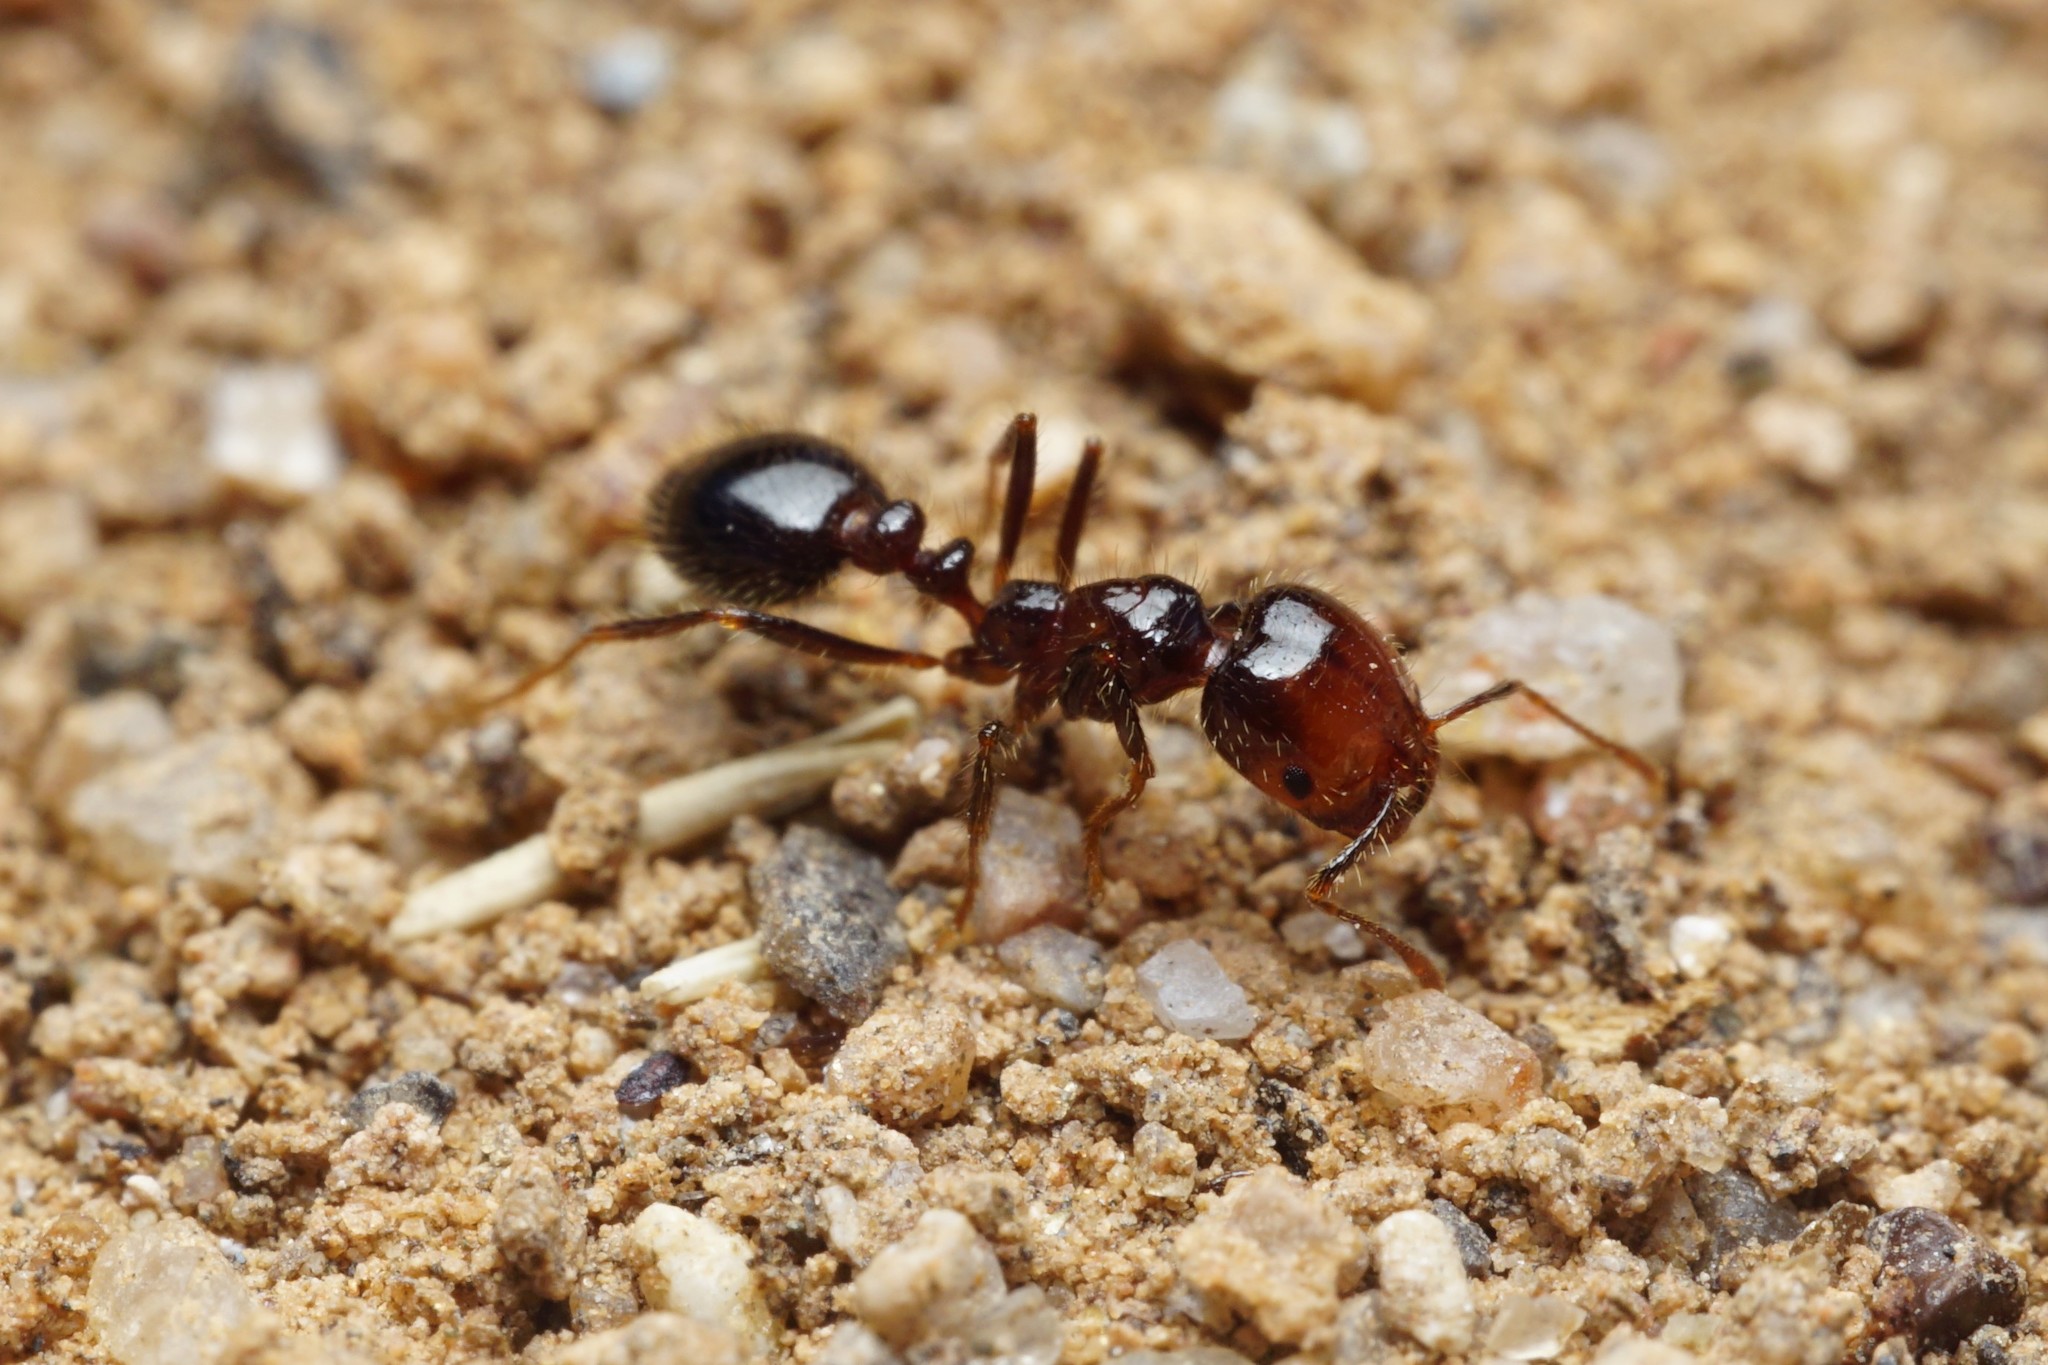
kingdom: Animalia
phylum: Arthropoda
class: Insecta
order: Hymenoptera
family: Formicidae
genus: Solenopsis
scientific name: Solenopsis xyloni
